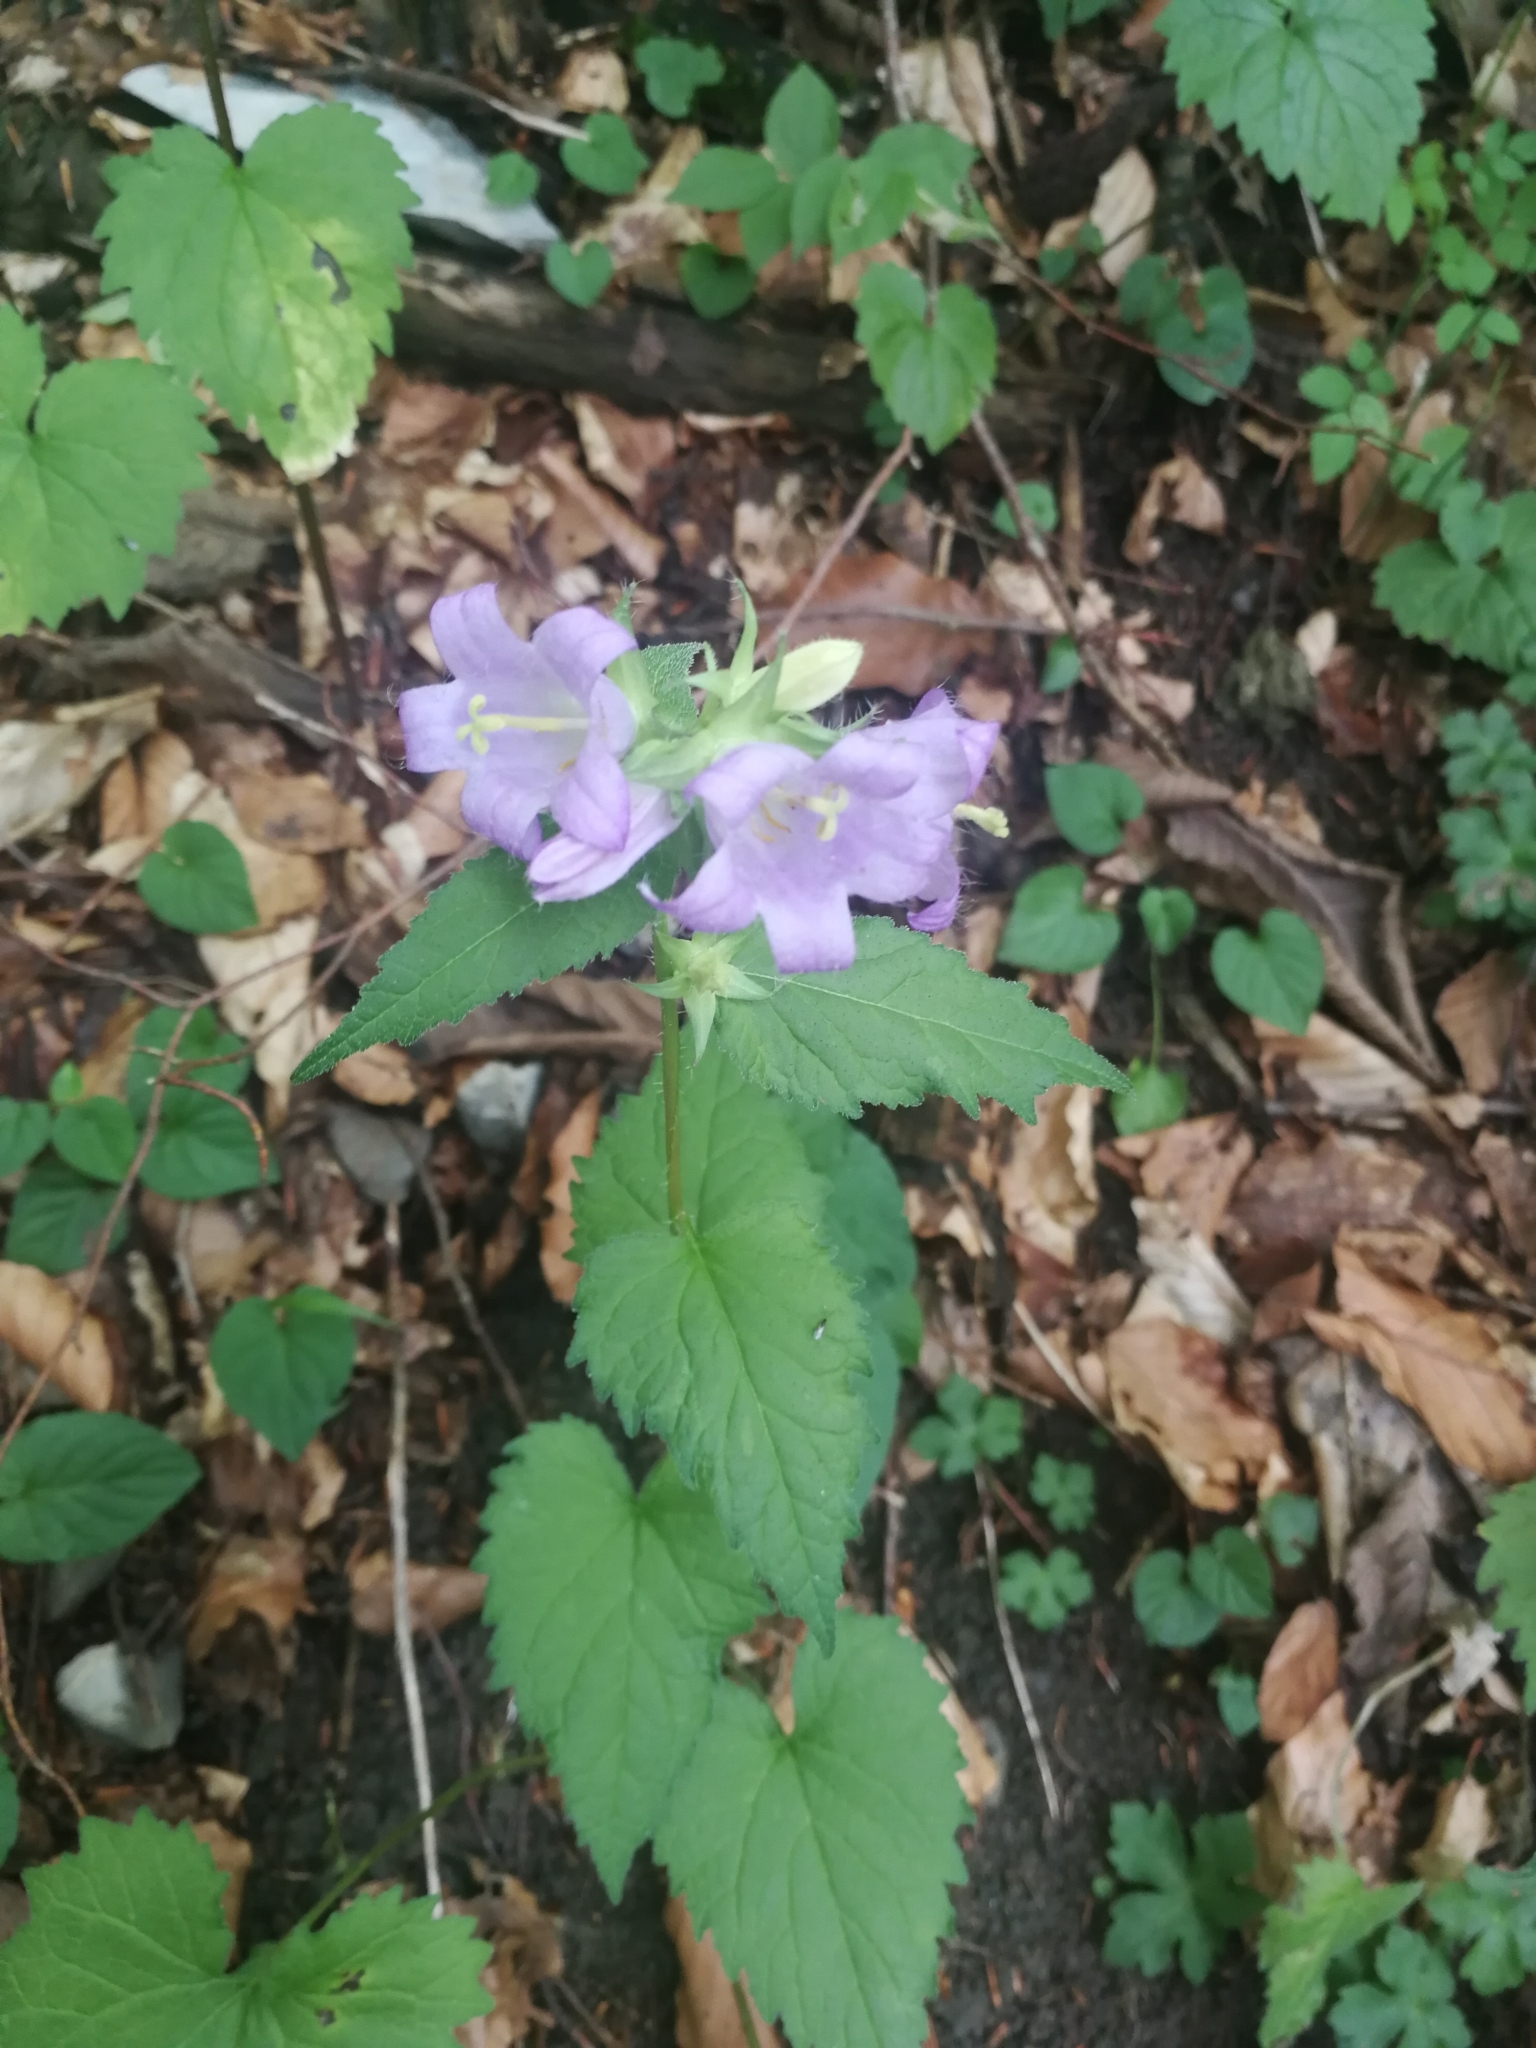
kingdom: Plantae
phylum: Tracheophyta
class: Magnoliopsida
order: Asterales
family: Campanulaceae
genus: Campanula
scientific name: Campanula trachelium
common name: Nettle-leaved bellflower
